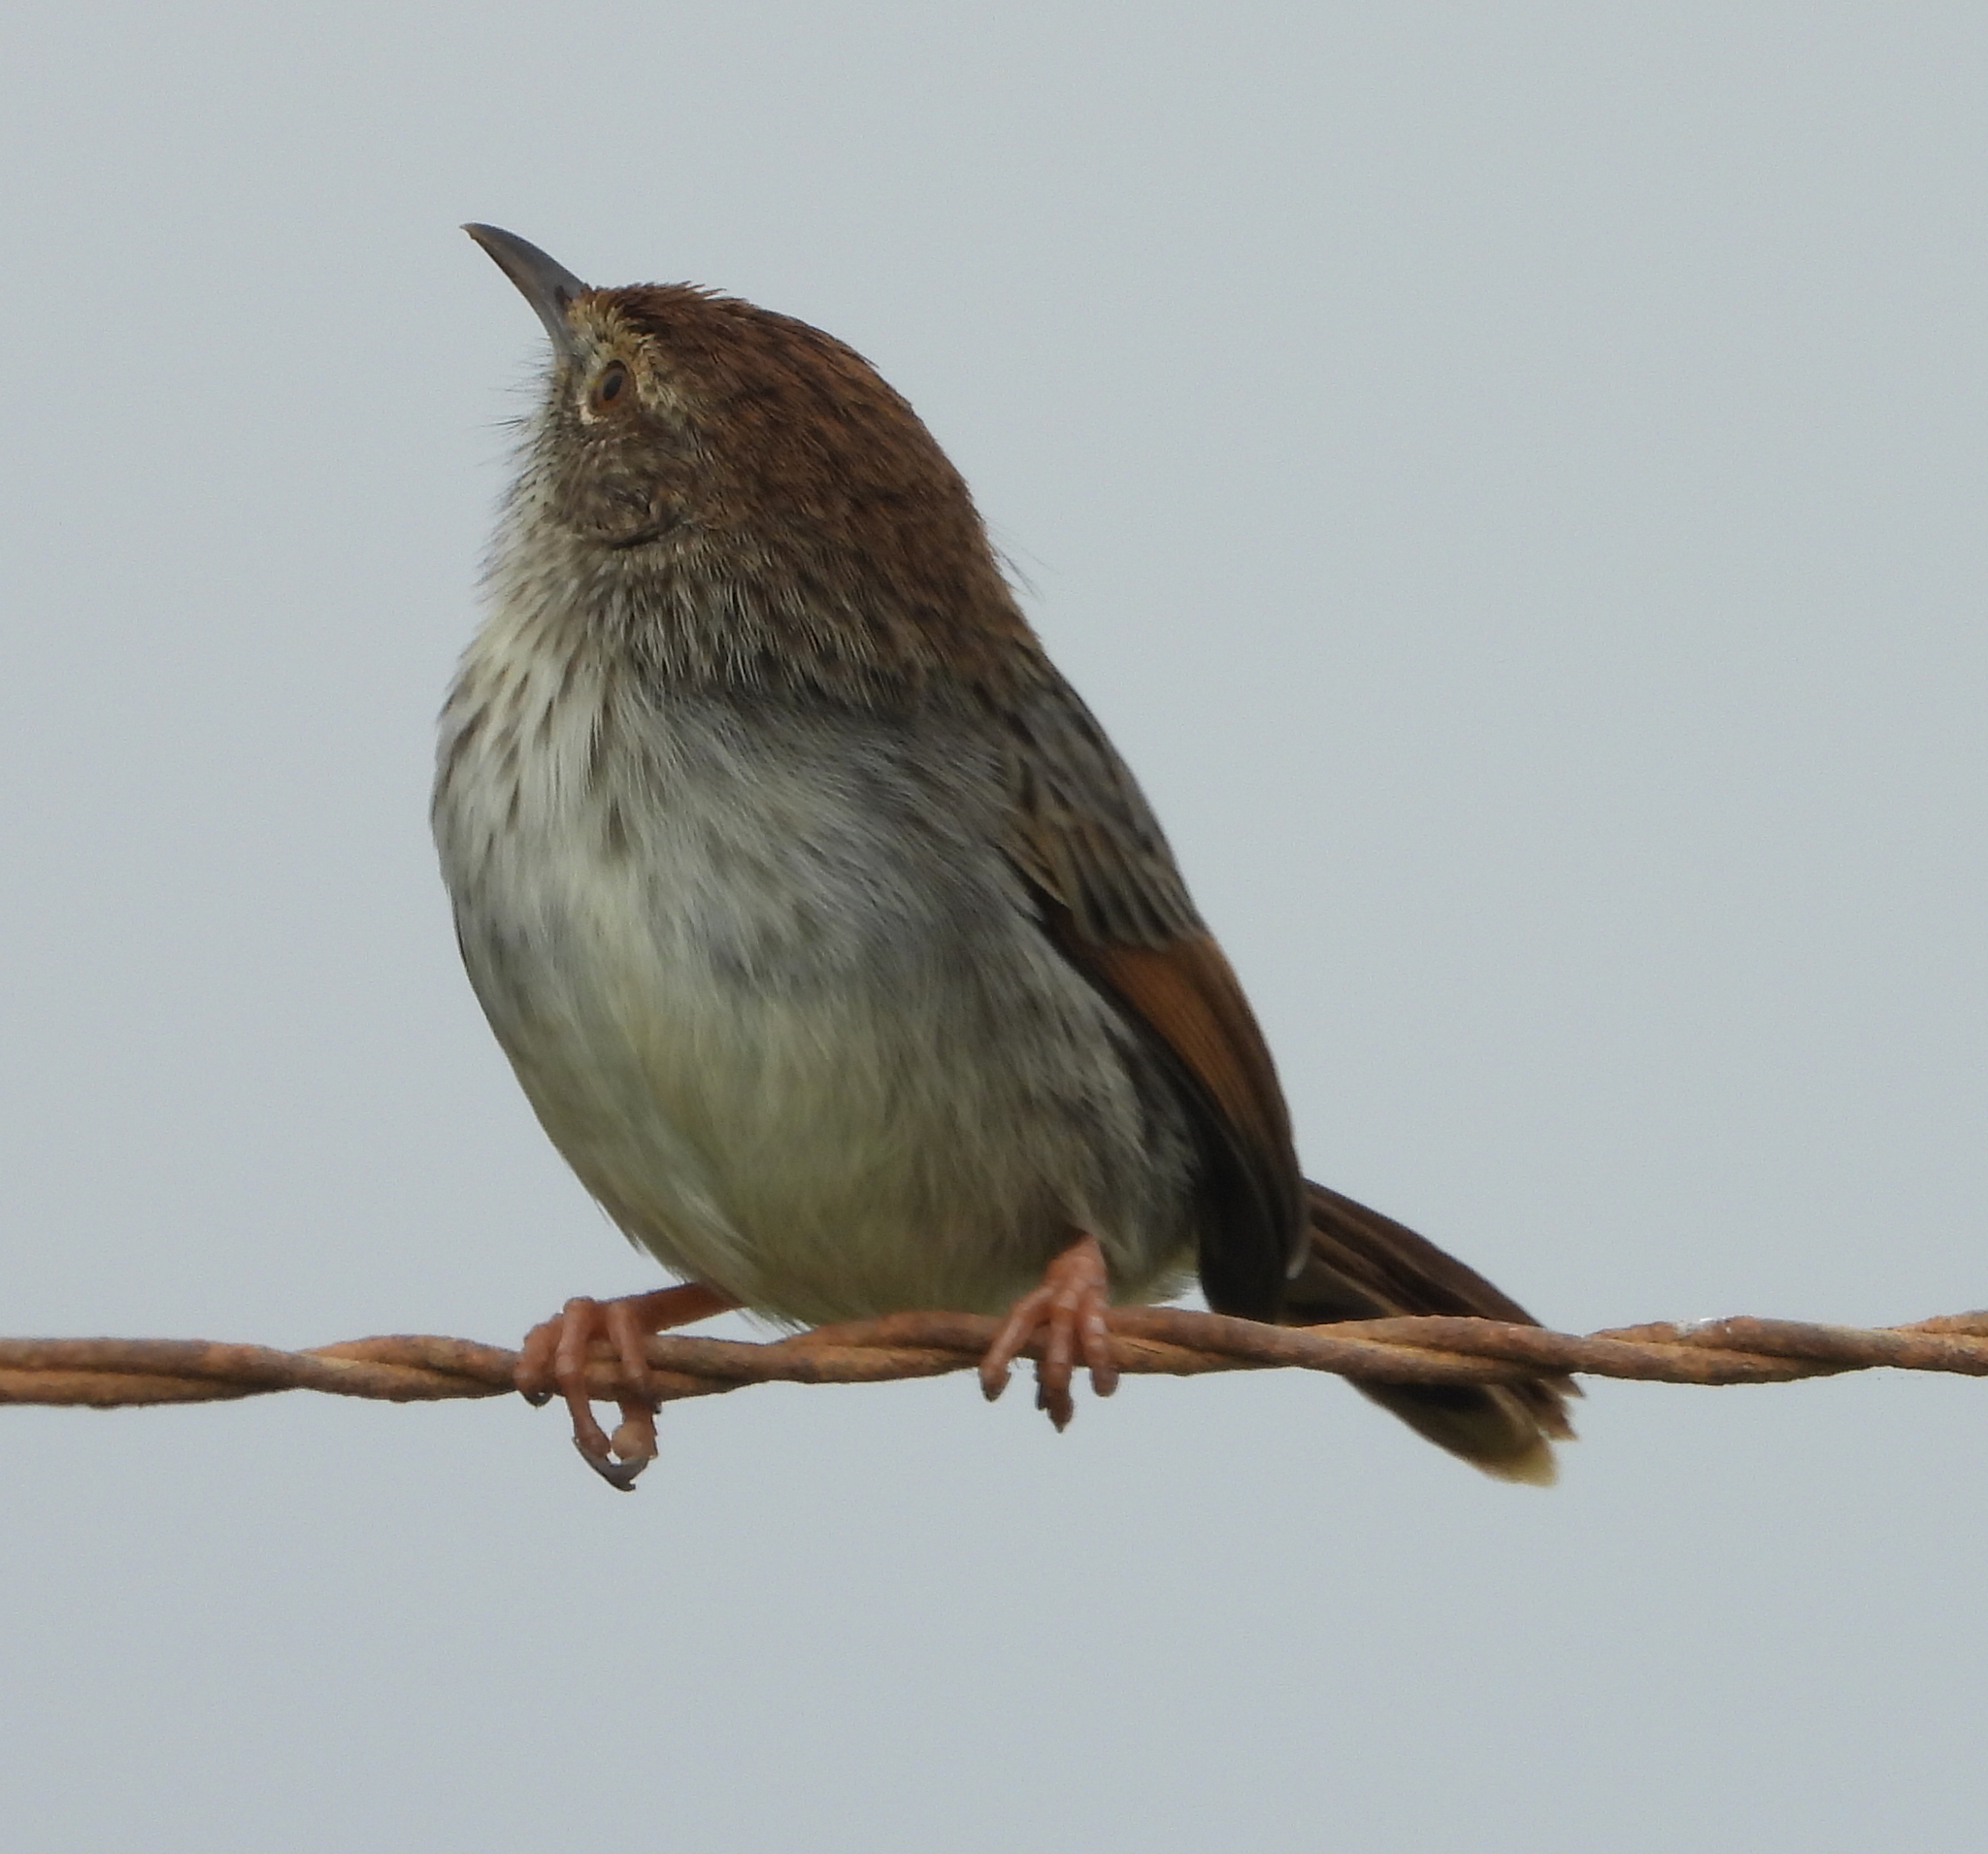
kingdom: Animalia
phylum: Chordata
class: Aves
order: Passeriformes
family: Cisticolidae
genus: Cisticola
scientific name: Cisticola subruficapilla
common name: Grey-backed cisticola
